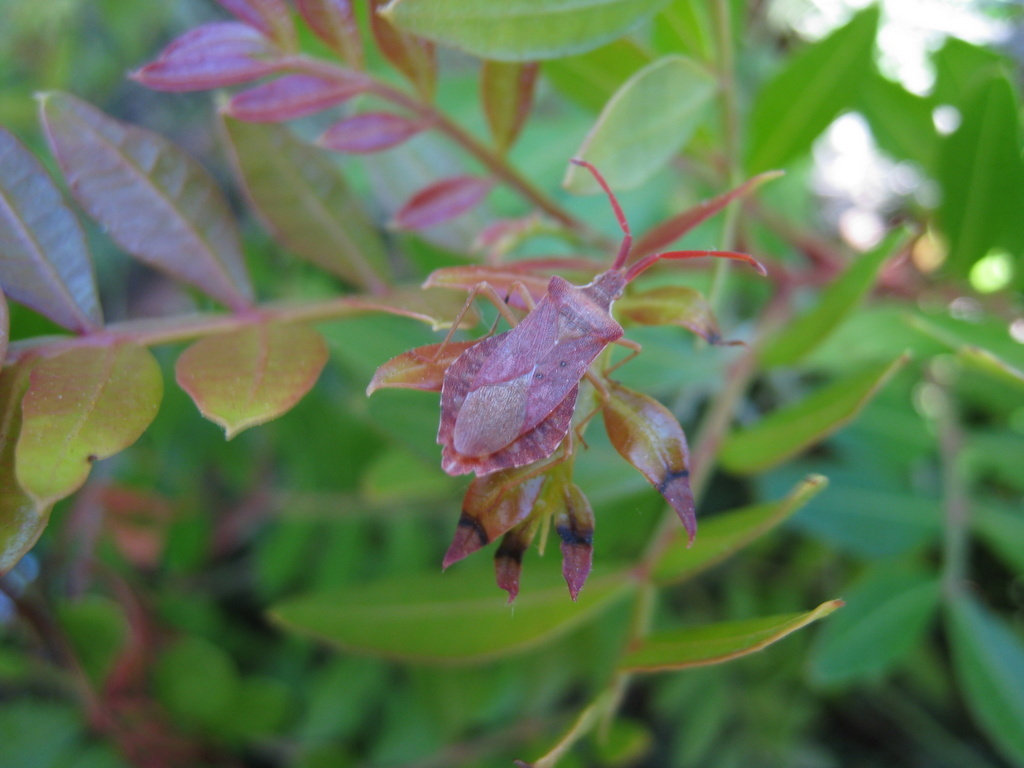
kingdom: Animalia
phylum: Arthropoda
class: Insecta
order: Hemiptera
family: Coreidae
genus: Haploprocta
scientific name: Haploprocta sulcicornis
